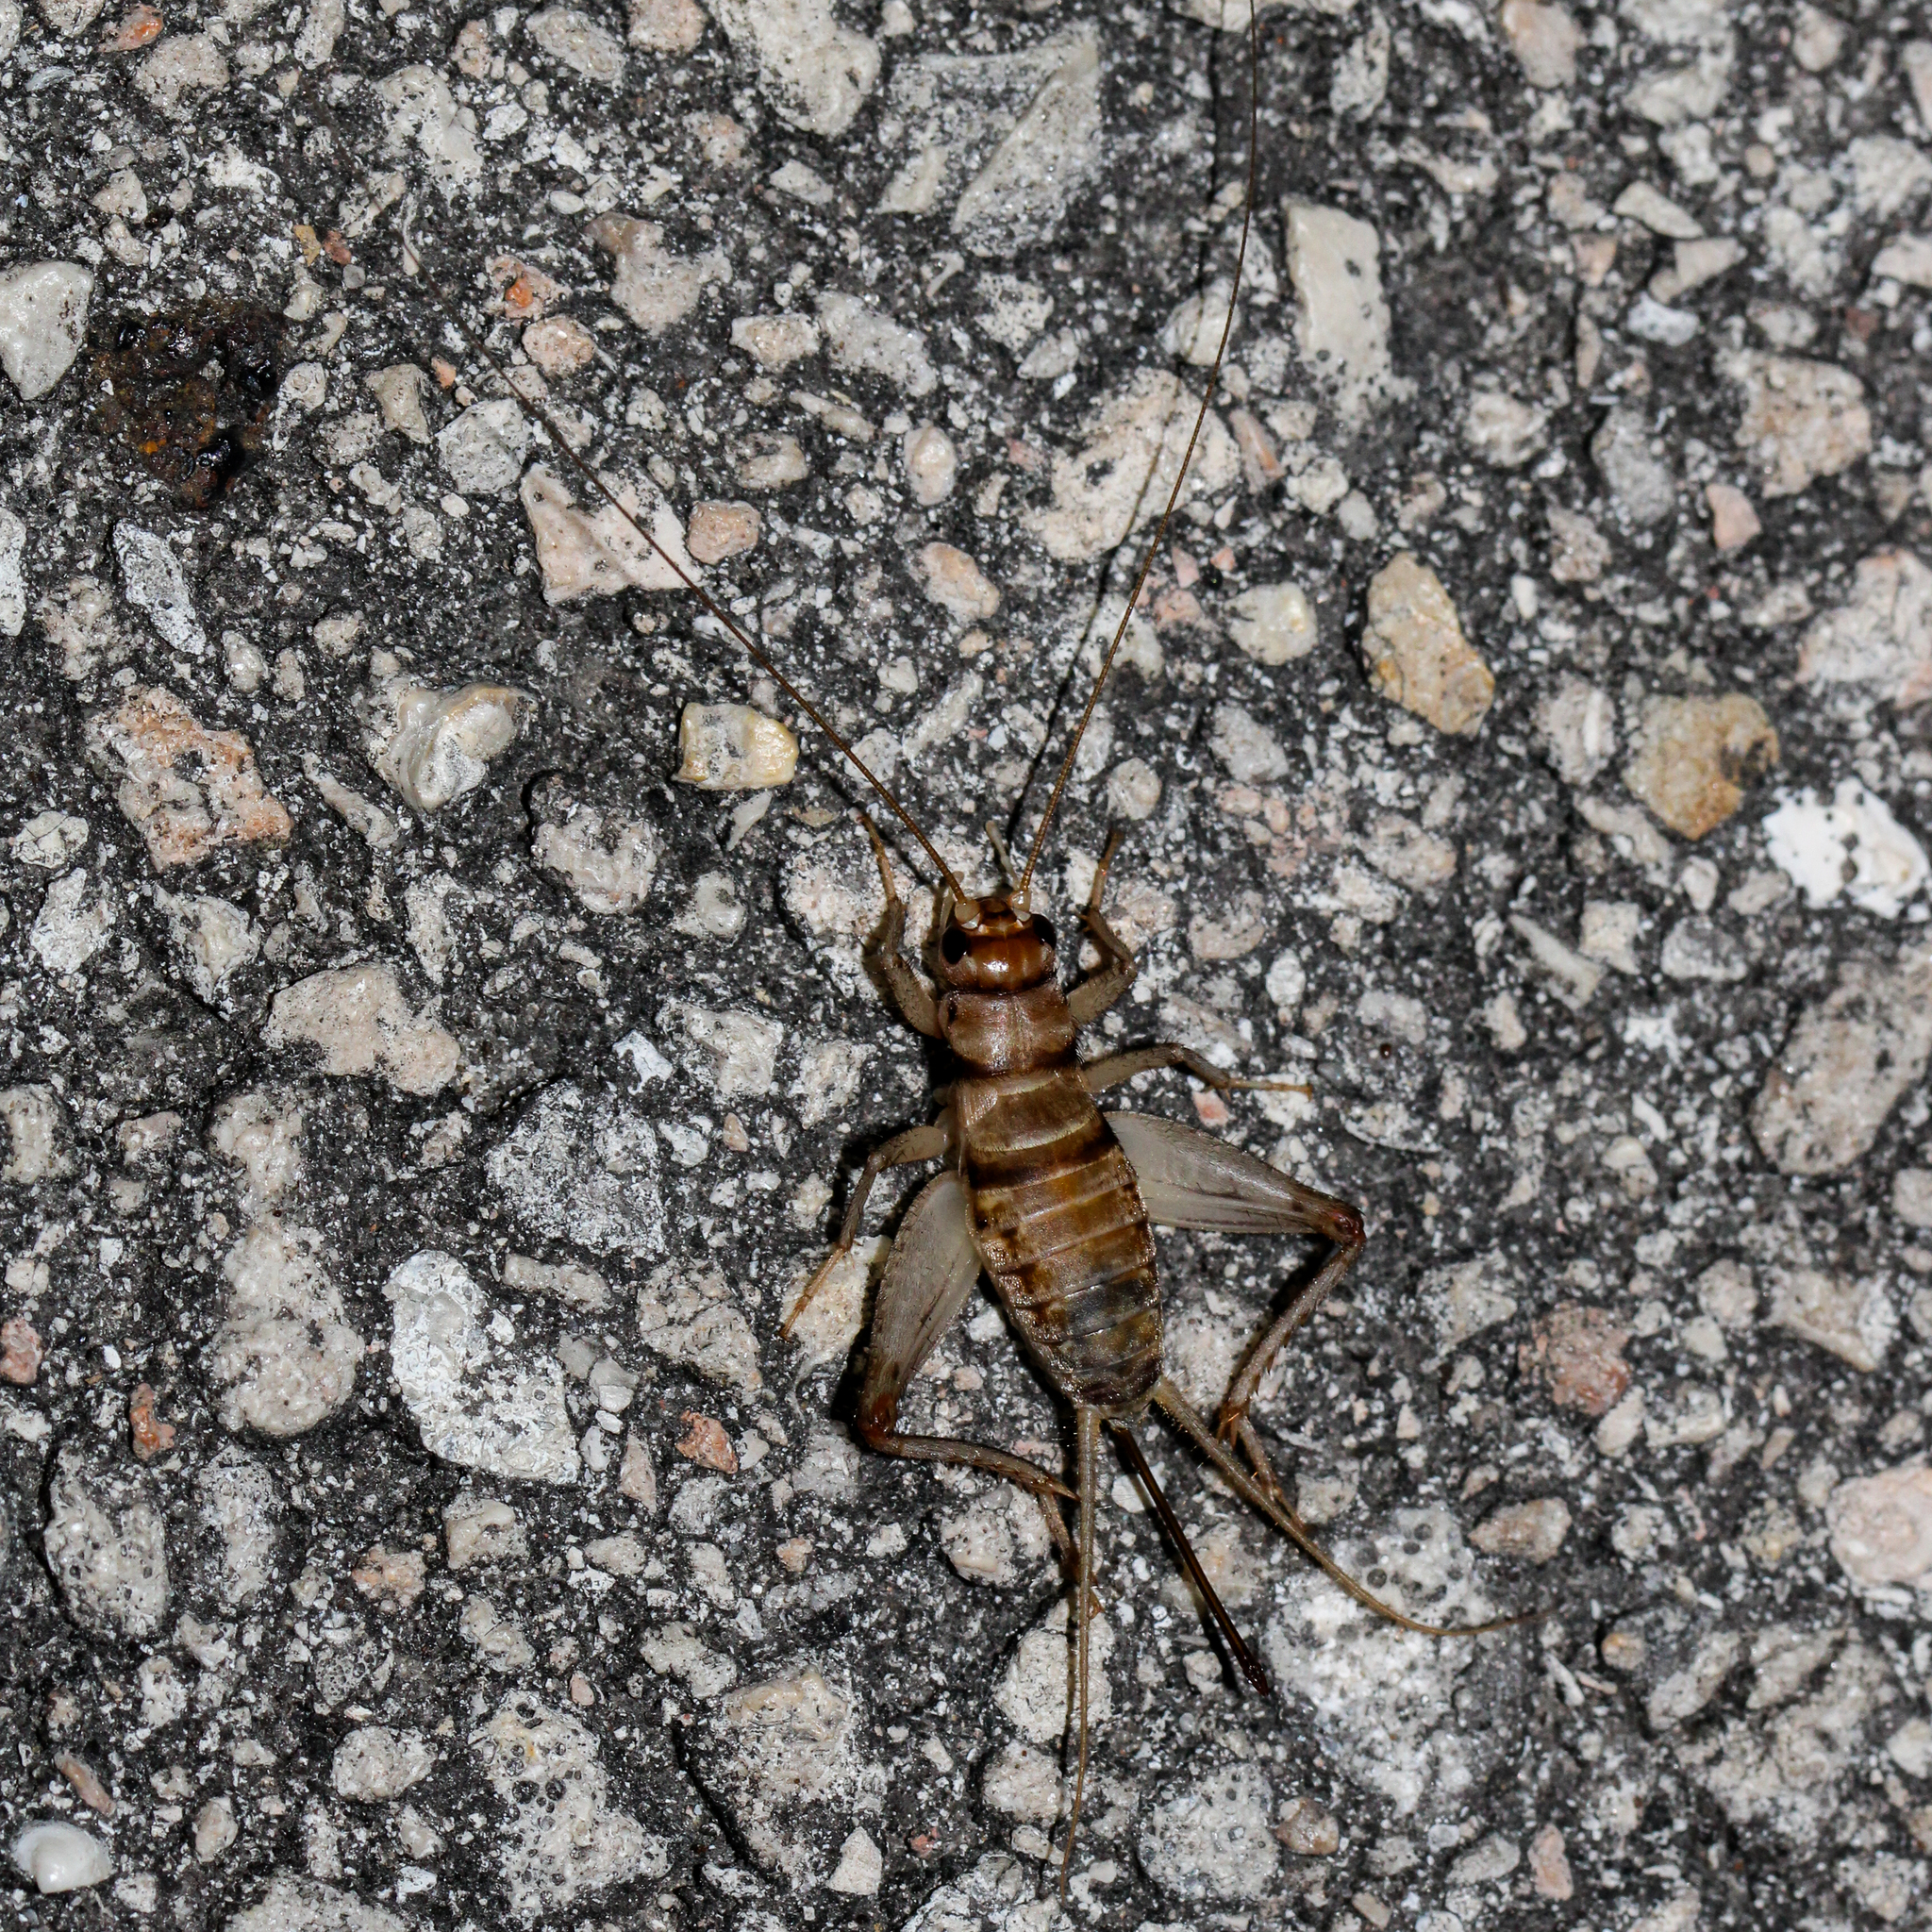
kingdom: Animalia
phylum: Arthropoda
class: Insecta
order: Orthoptera
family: Gryllidae
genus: Gryllodes
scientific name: Gryllodes sigillatus
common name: Tropical house cricket
